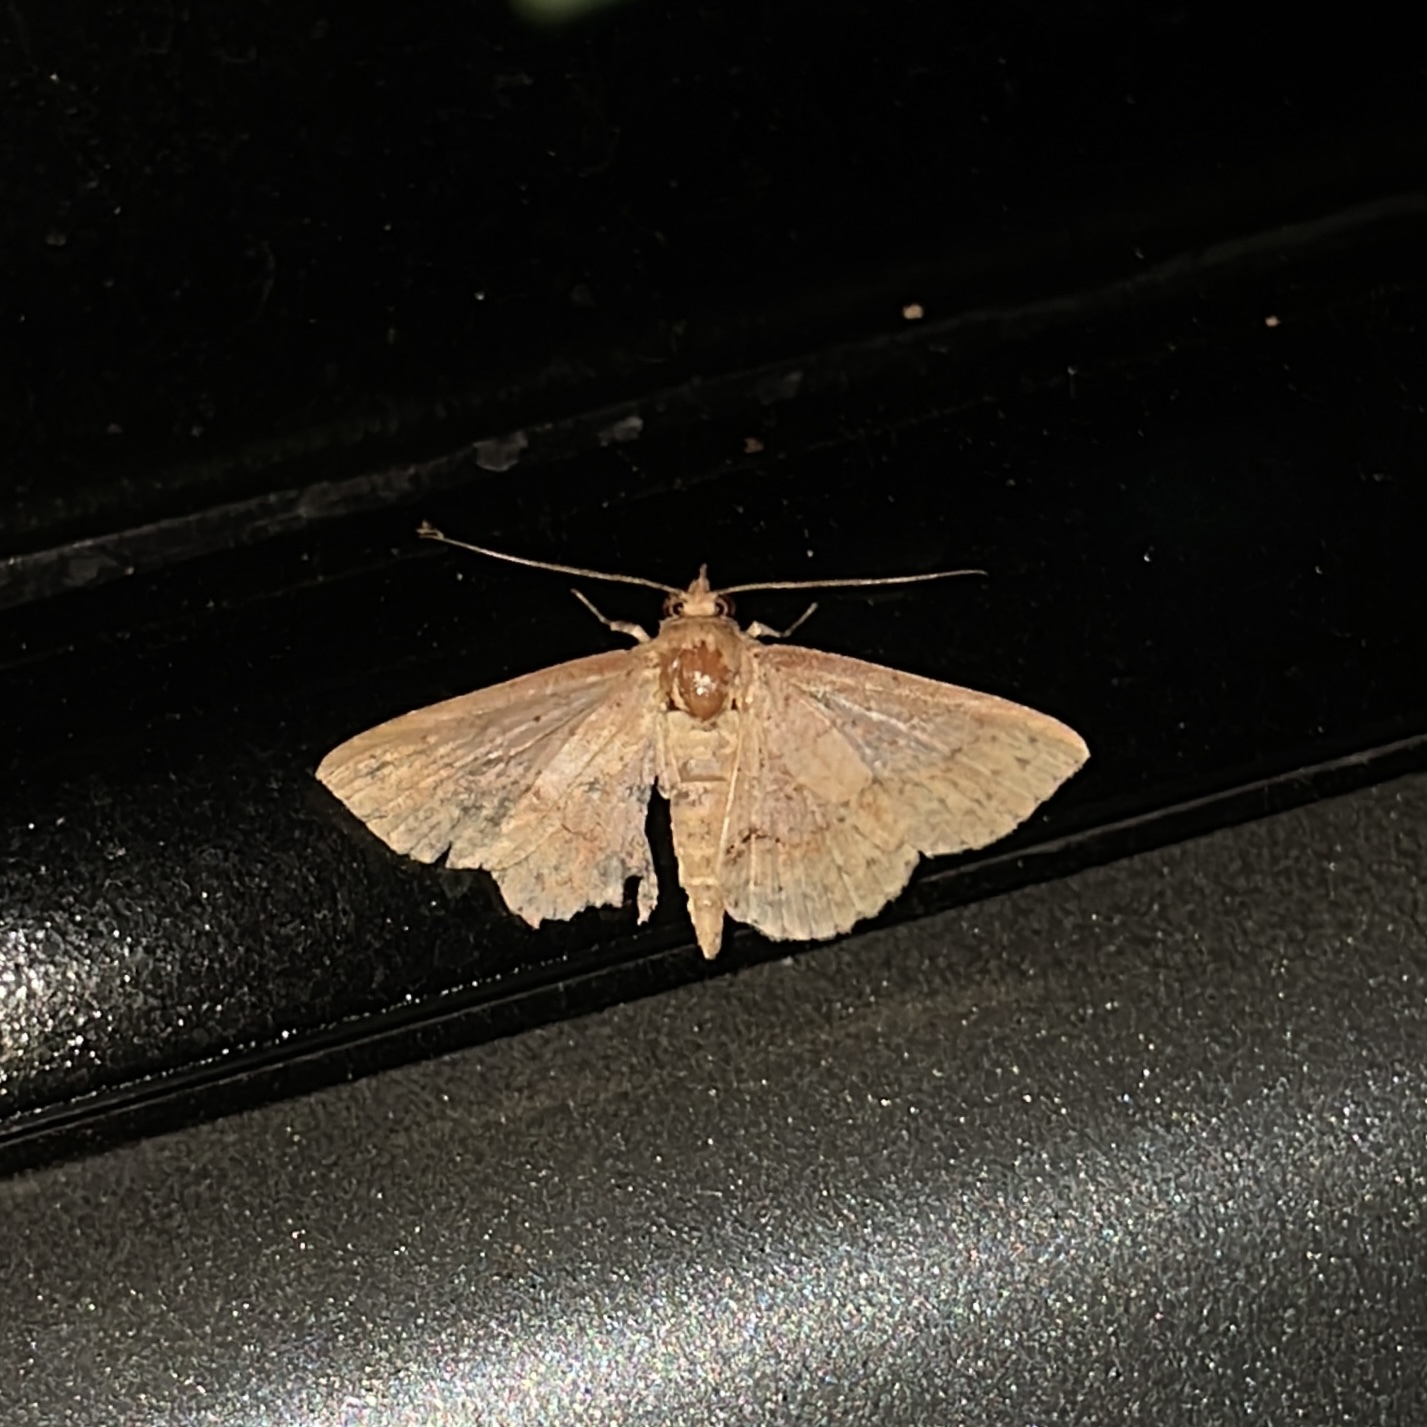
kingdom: Animalia
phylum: Arthropoda
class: Insecta
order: Lepidoptera
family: Erebidae
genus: Antiblemma
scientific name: Antiblemma melanoides
